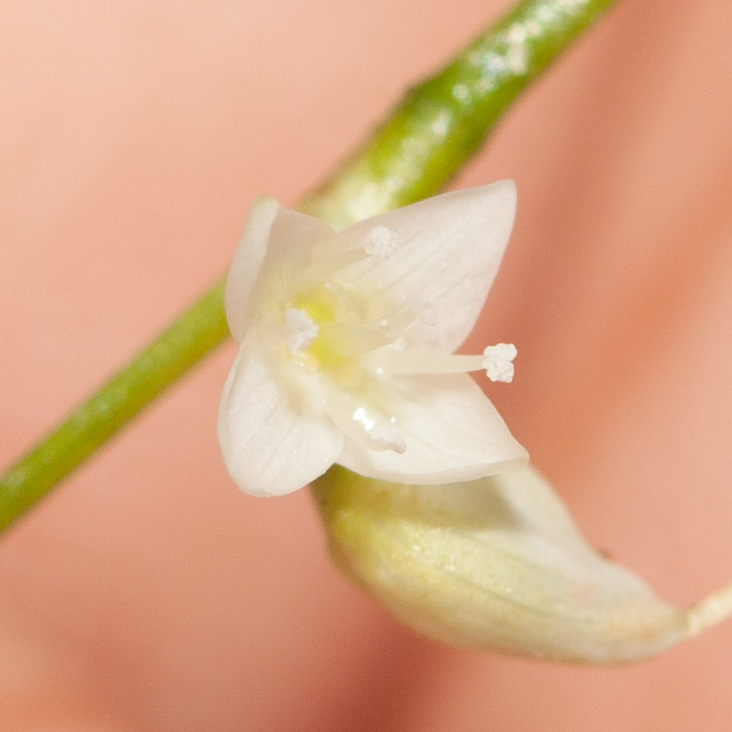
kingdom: Plantae
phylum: Tracheophyta
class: Magnoliopsida
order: Caryophyllales
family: Polygonaceae
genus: Persicaria
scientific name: Persicaria virginiana
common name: Jumpseed
